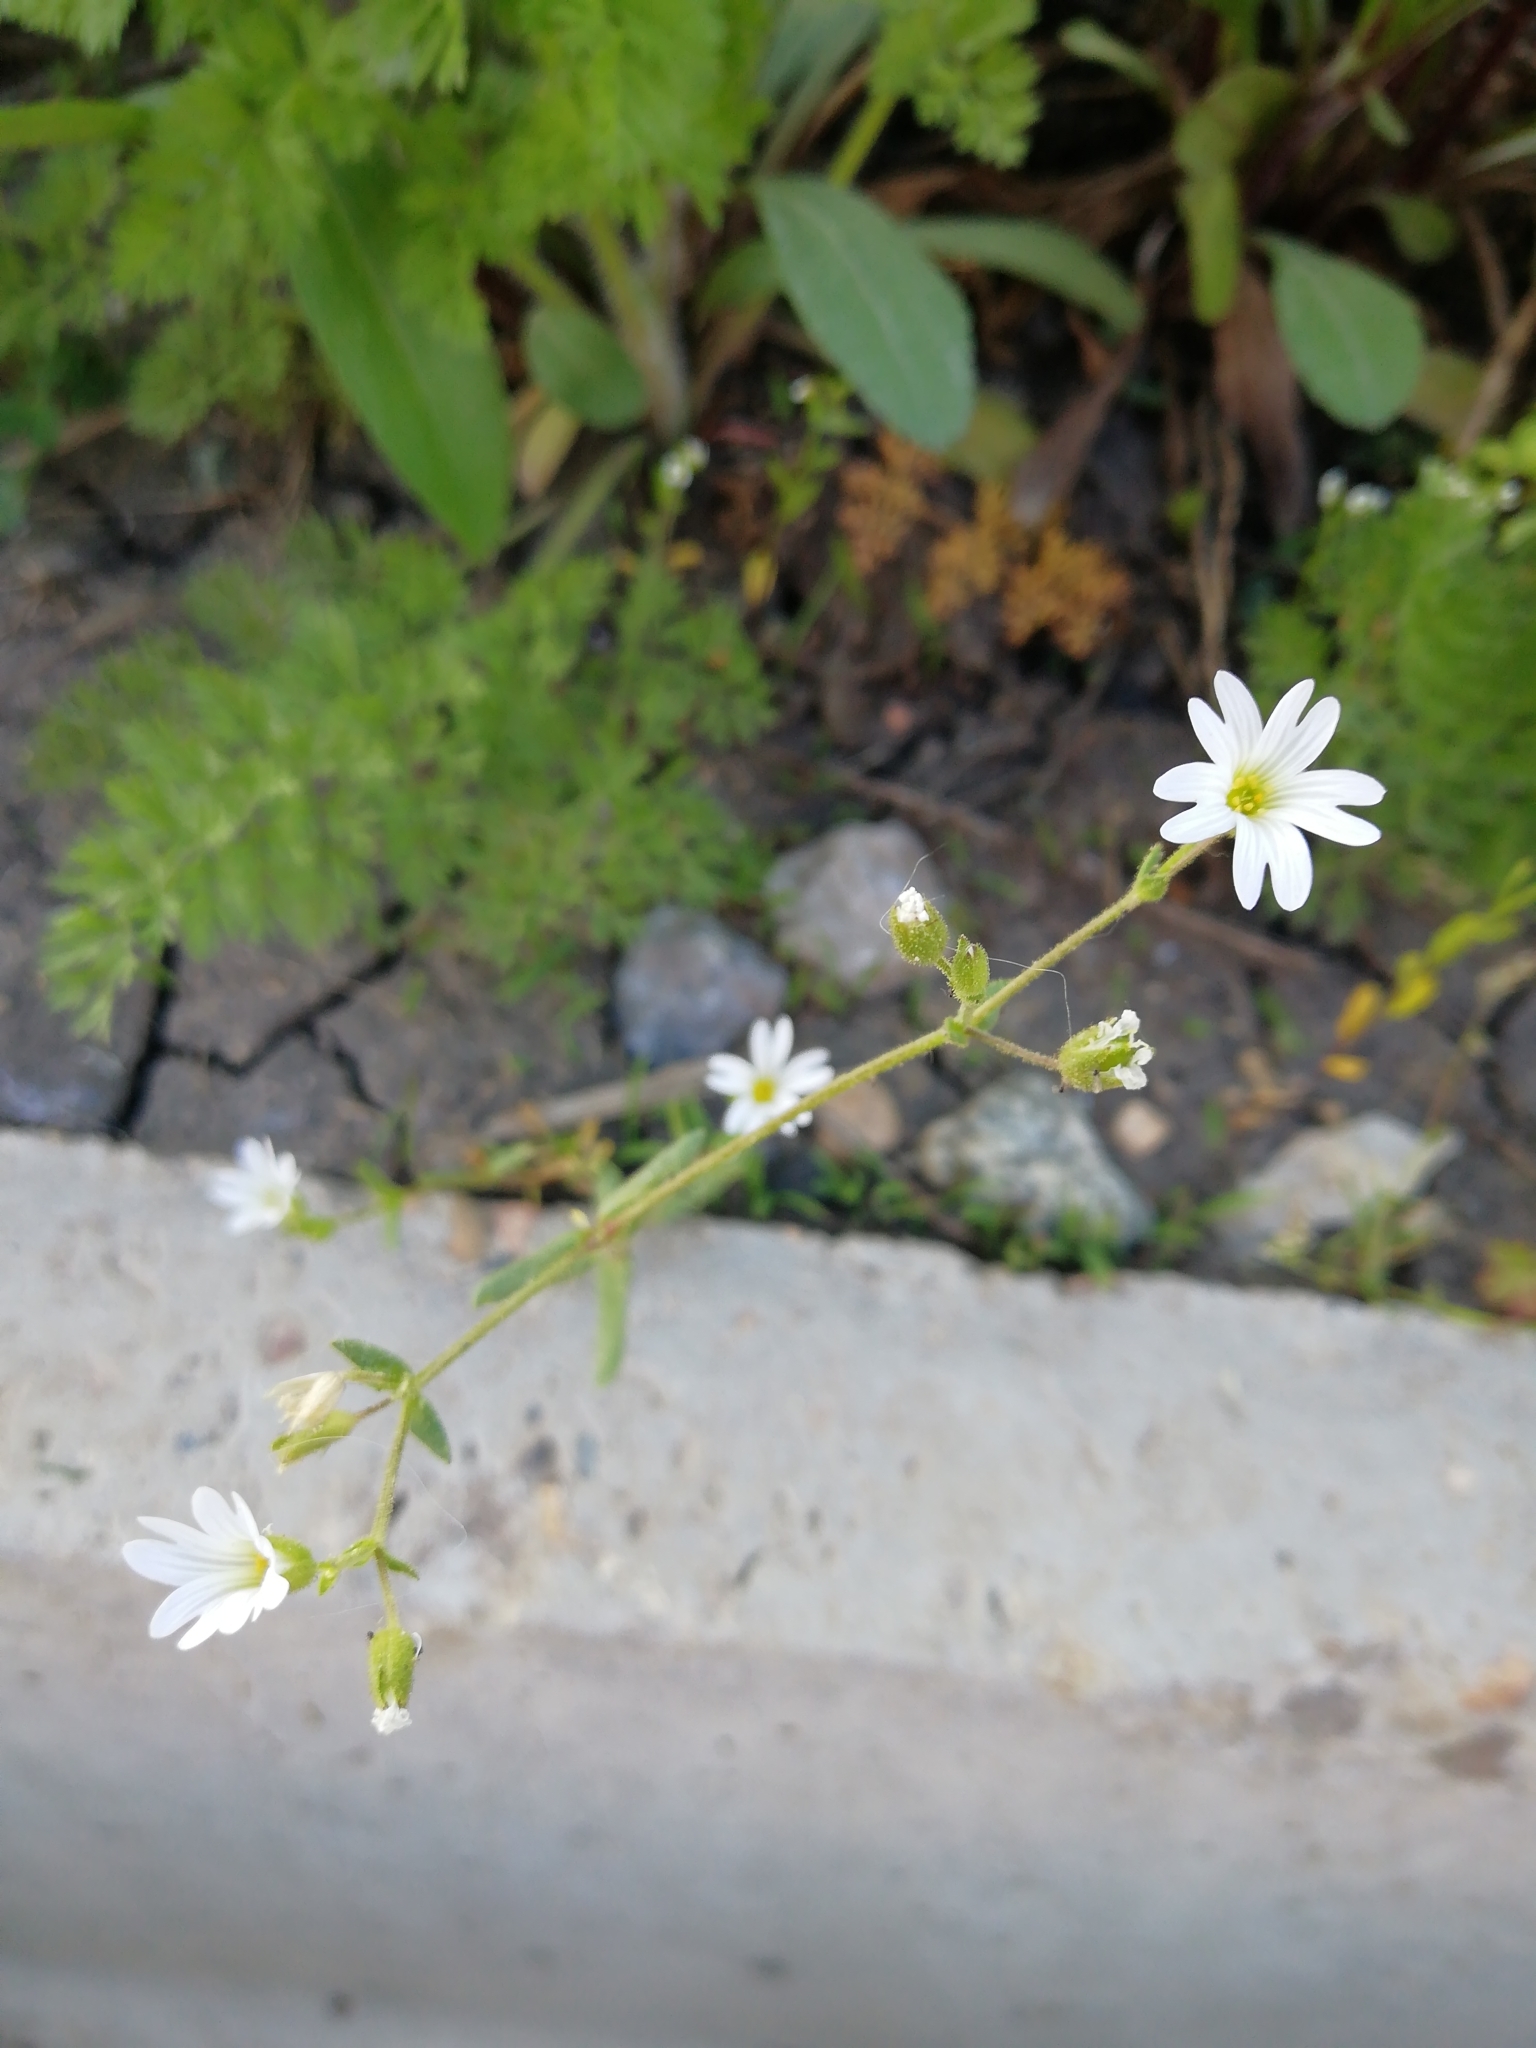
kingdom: Plantae
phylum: Tracheophyta
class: Magnoliopsida
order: Caryophyllales
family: Caryophyllaceae
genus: Dichodon
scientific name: Dichodon viscidum
